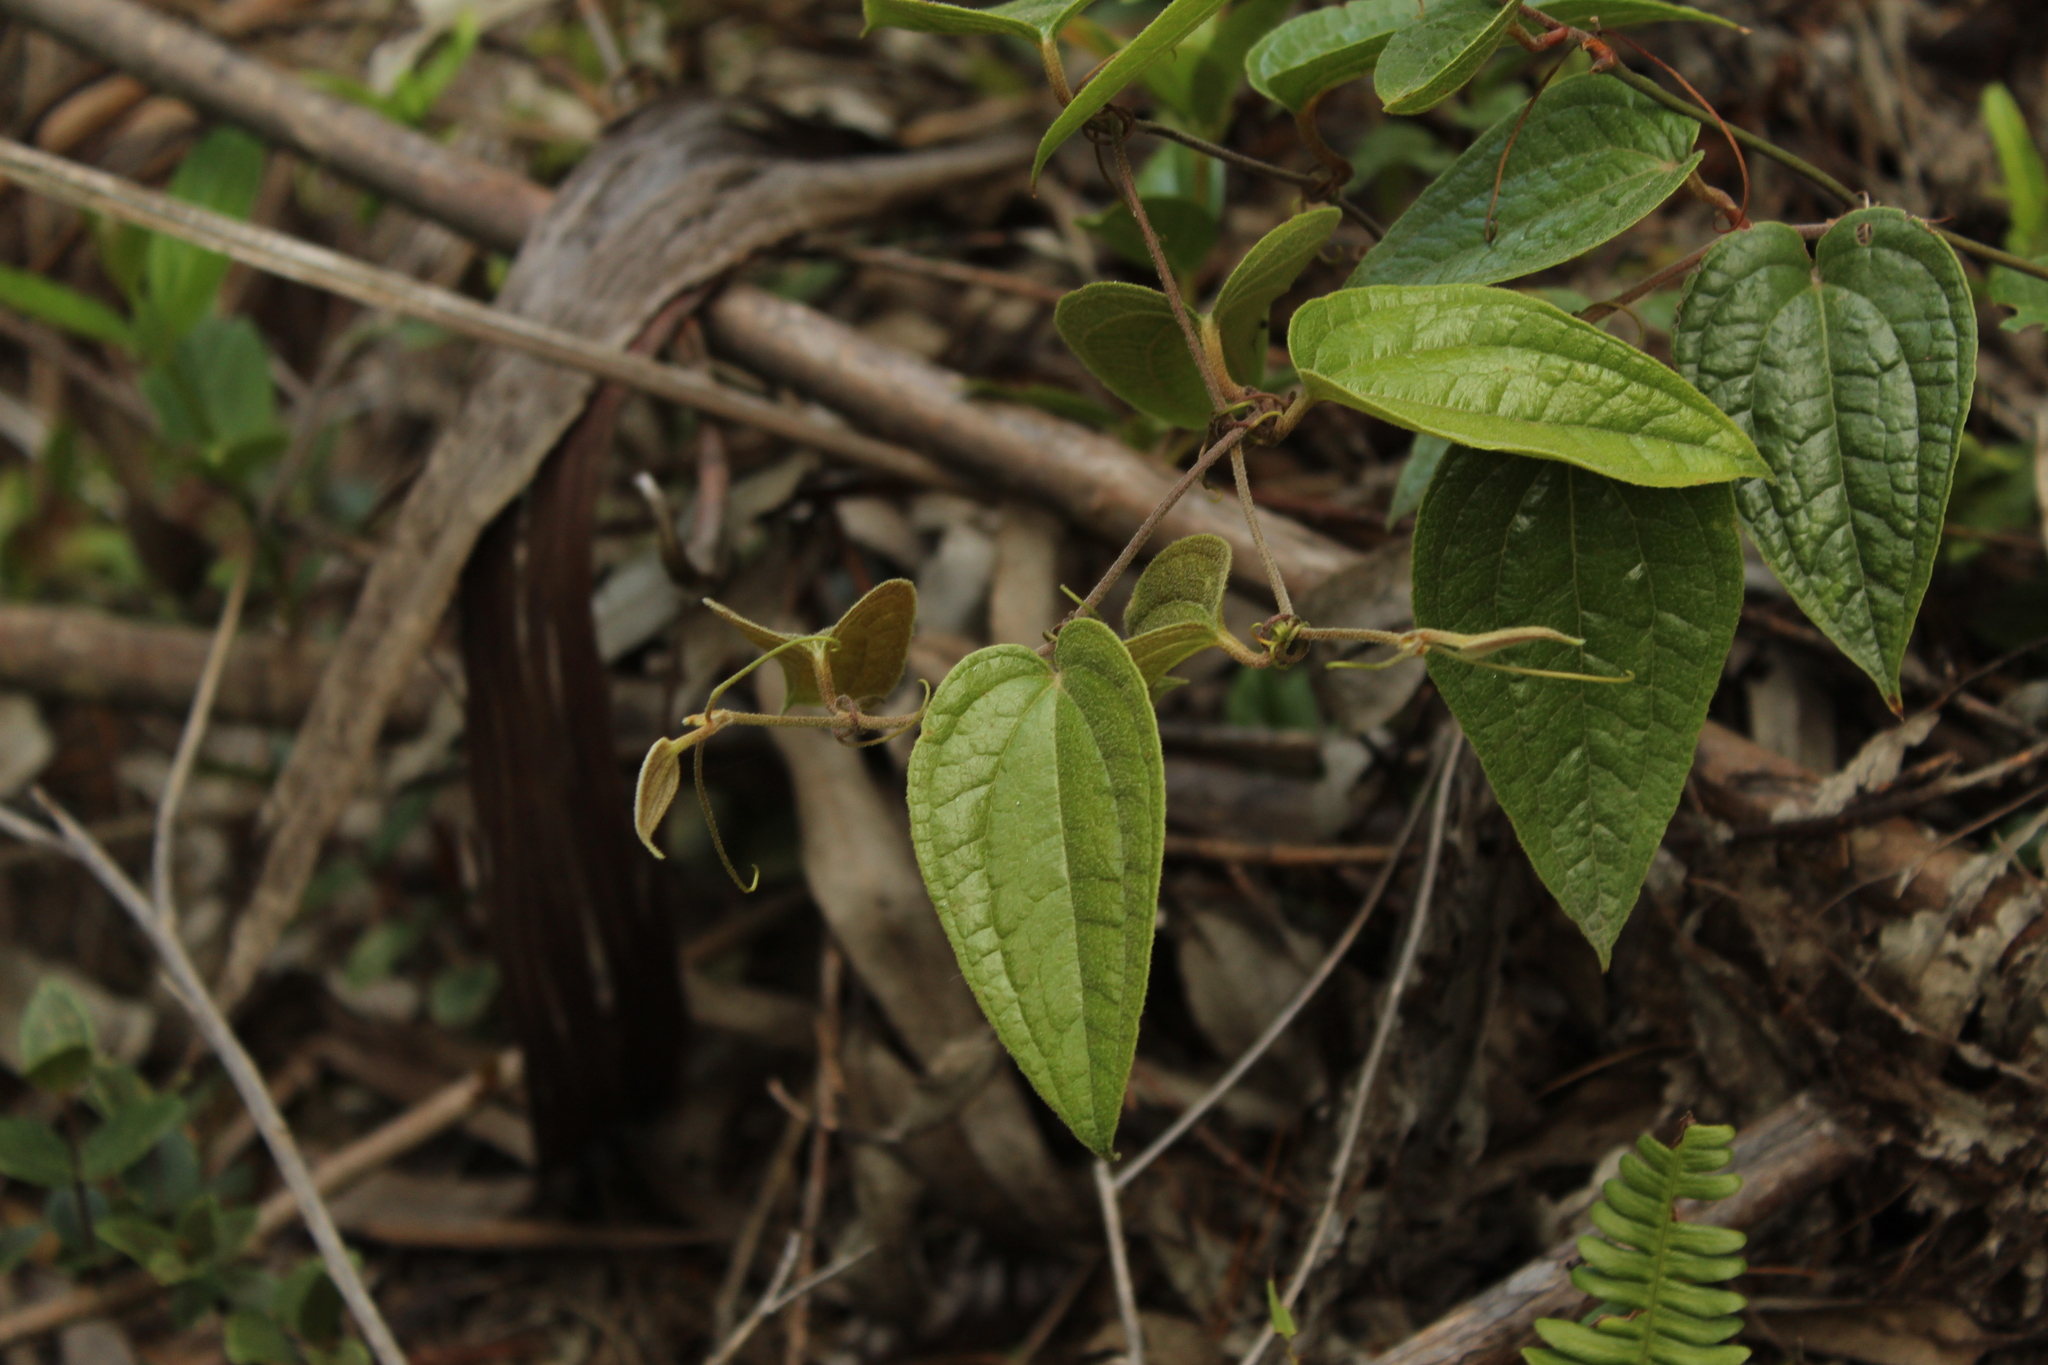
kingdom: Plantae
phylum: Tracheophyta
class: Liliopsida
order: Liliales
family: Smilacaceae
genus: Smilax
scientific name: Smilax tomentosa
